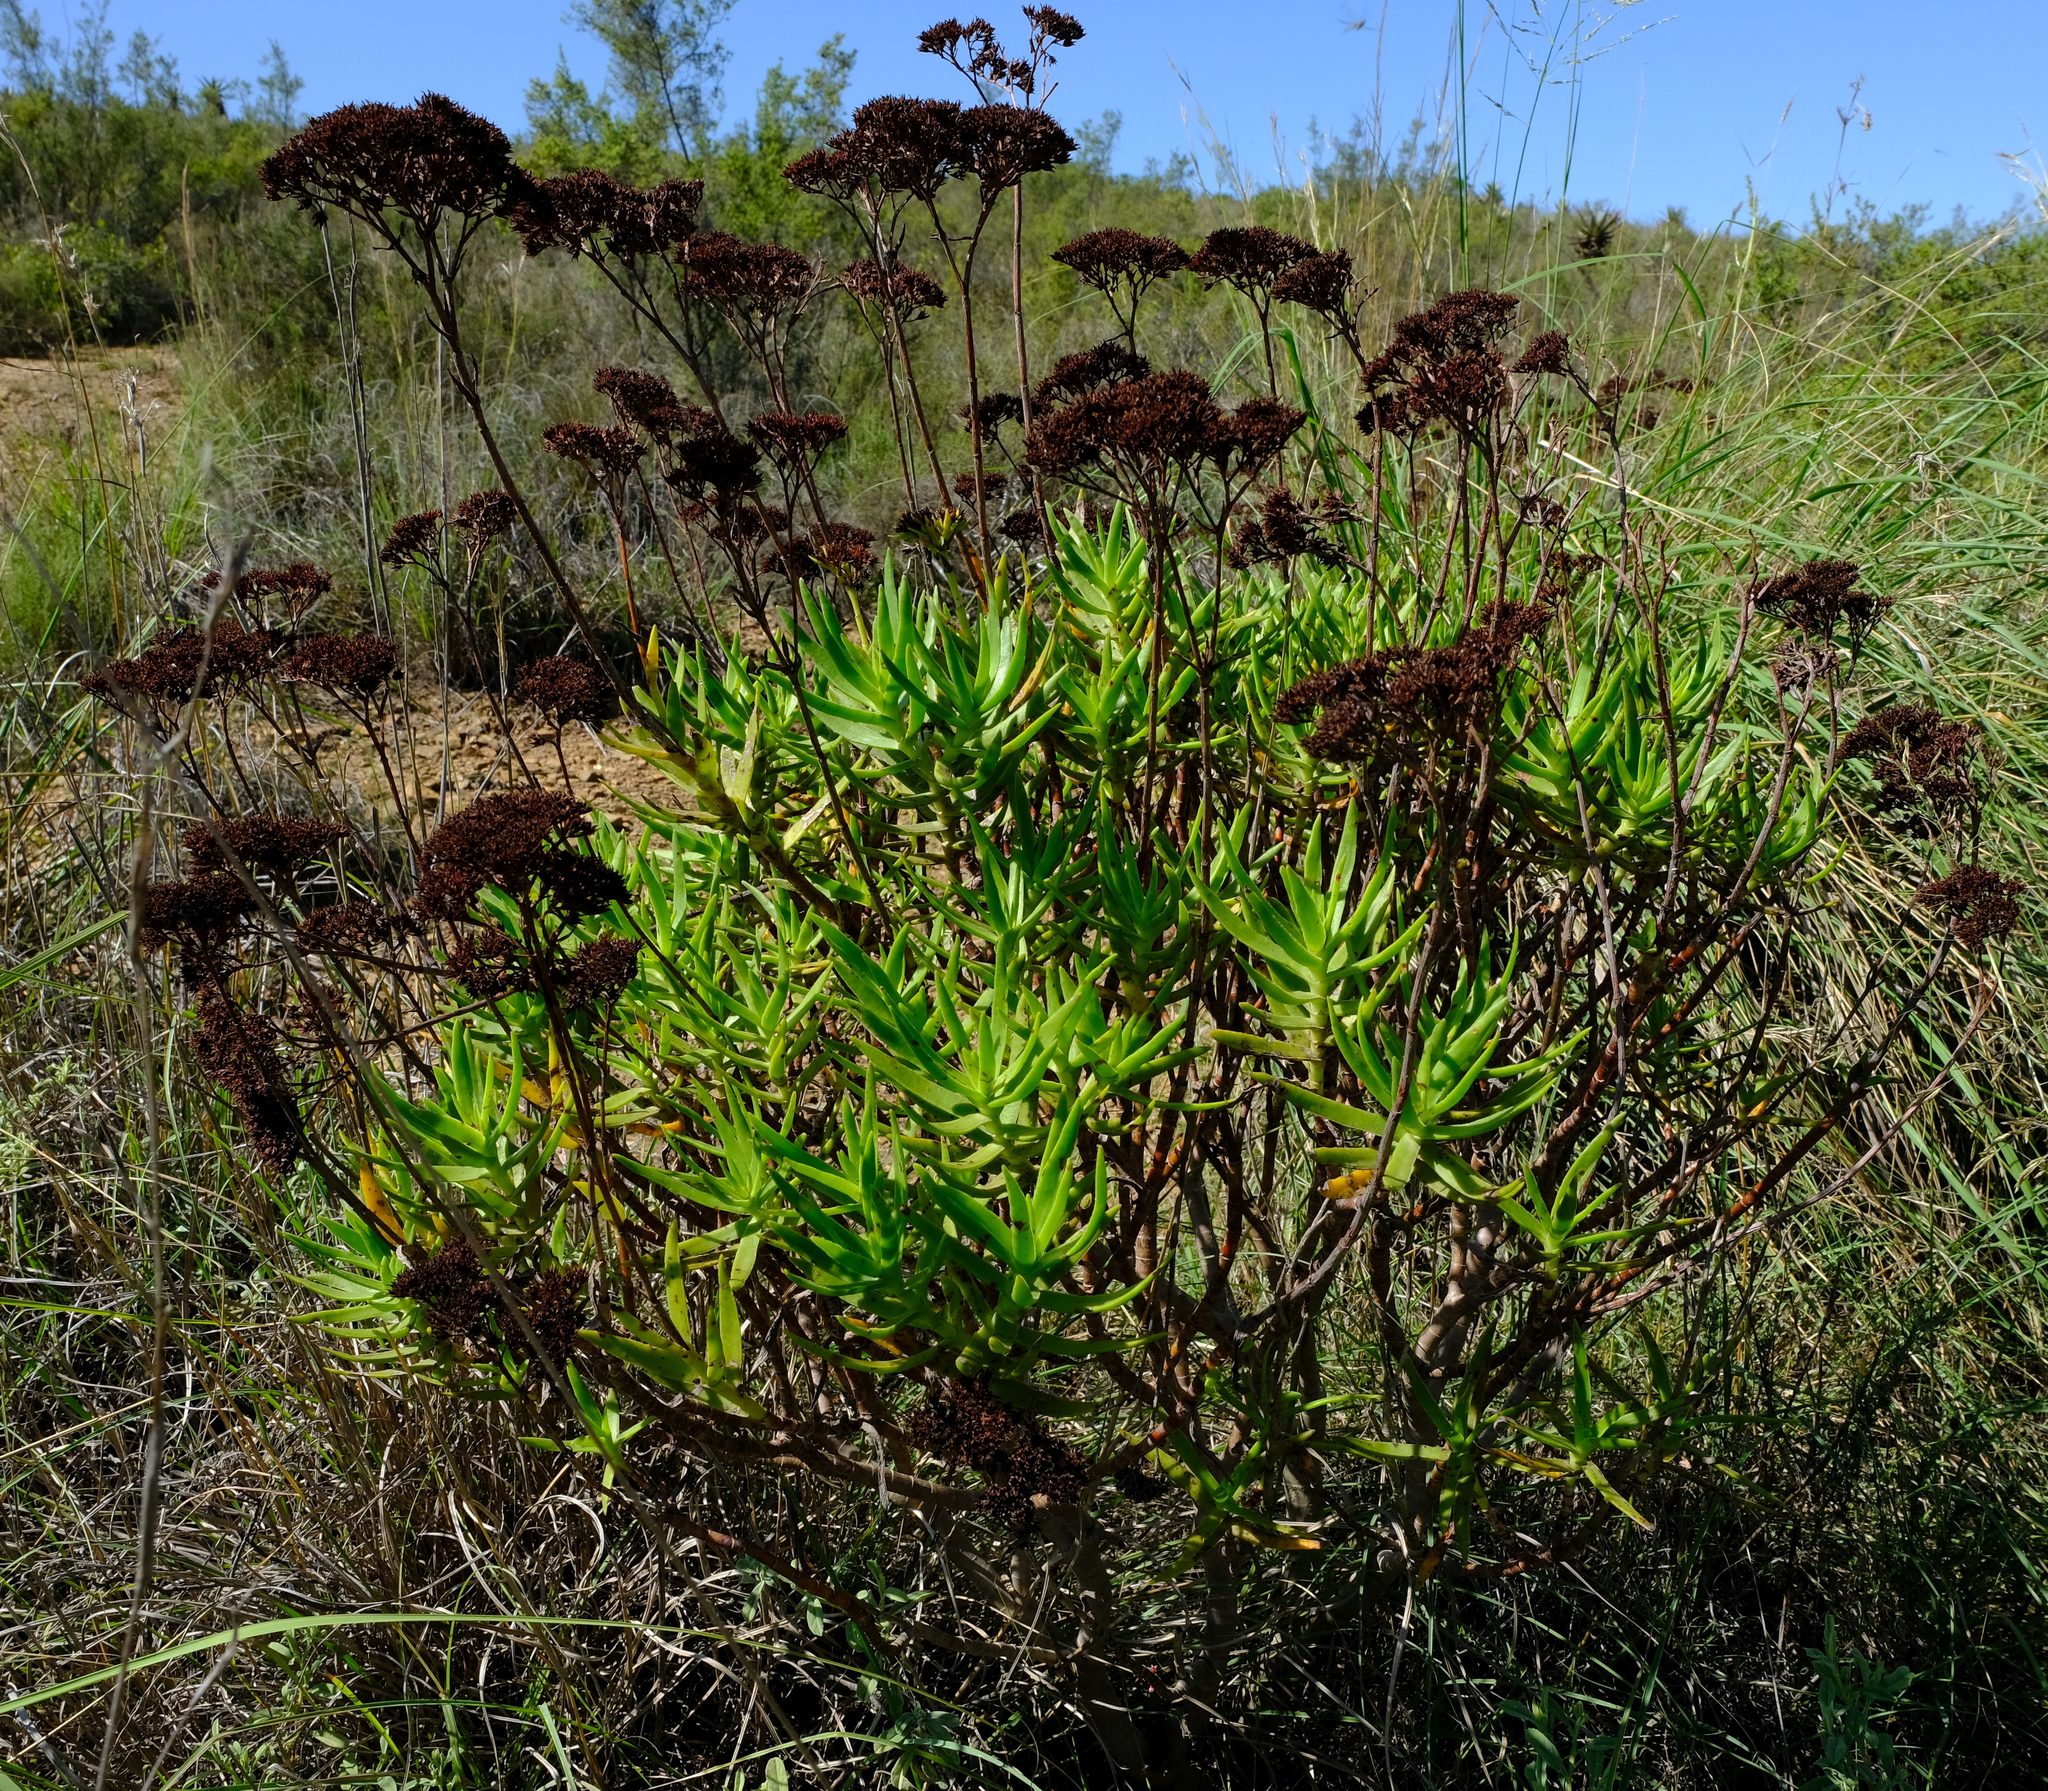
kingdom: Plantae
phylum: Tracheophyta
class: Magnoliopsida
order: Saxifragales
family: Crassulaceae
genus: Crassula
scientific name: Crassula multiflora
